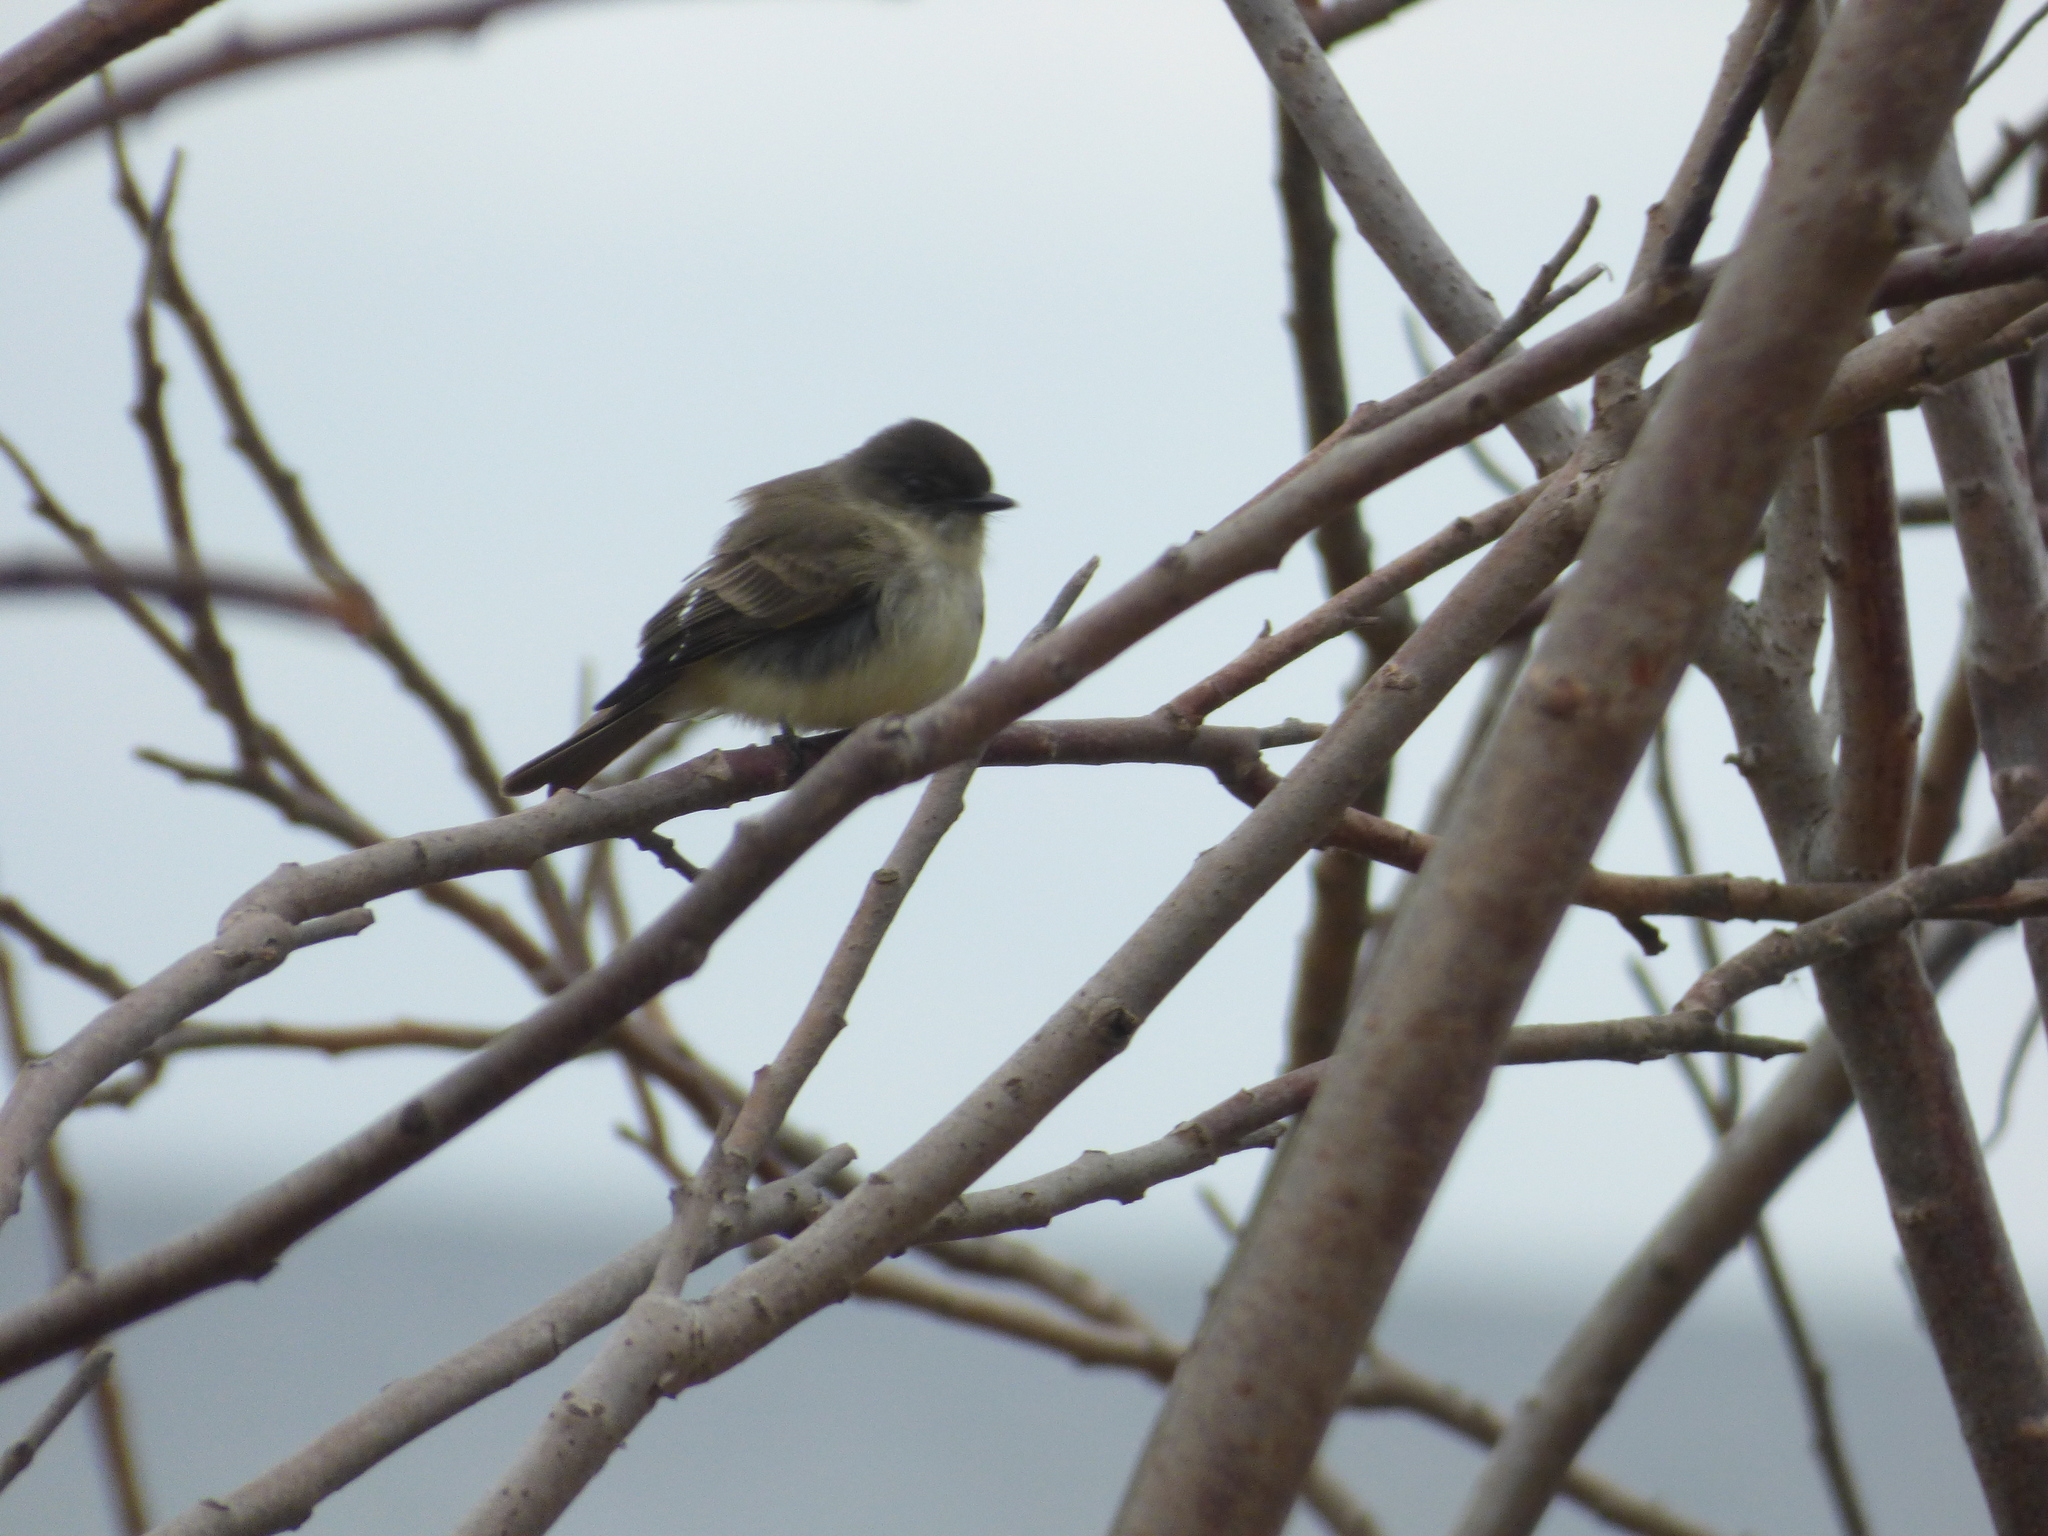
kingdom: Animalia
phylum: Chordata
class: Aves
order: Passeriformes
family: Tyrannidae
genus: Sayornis
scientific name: Sayornis phoebe
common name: Eastern phoebe
